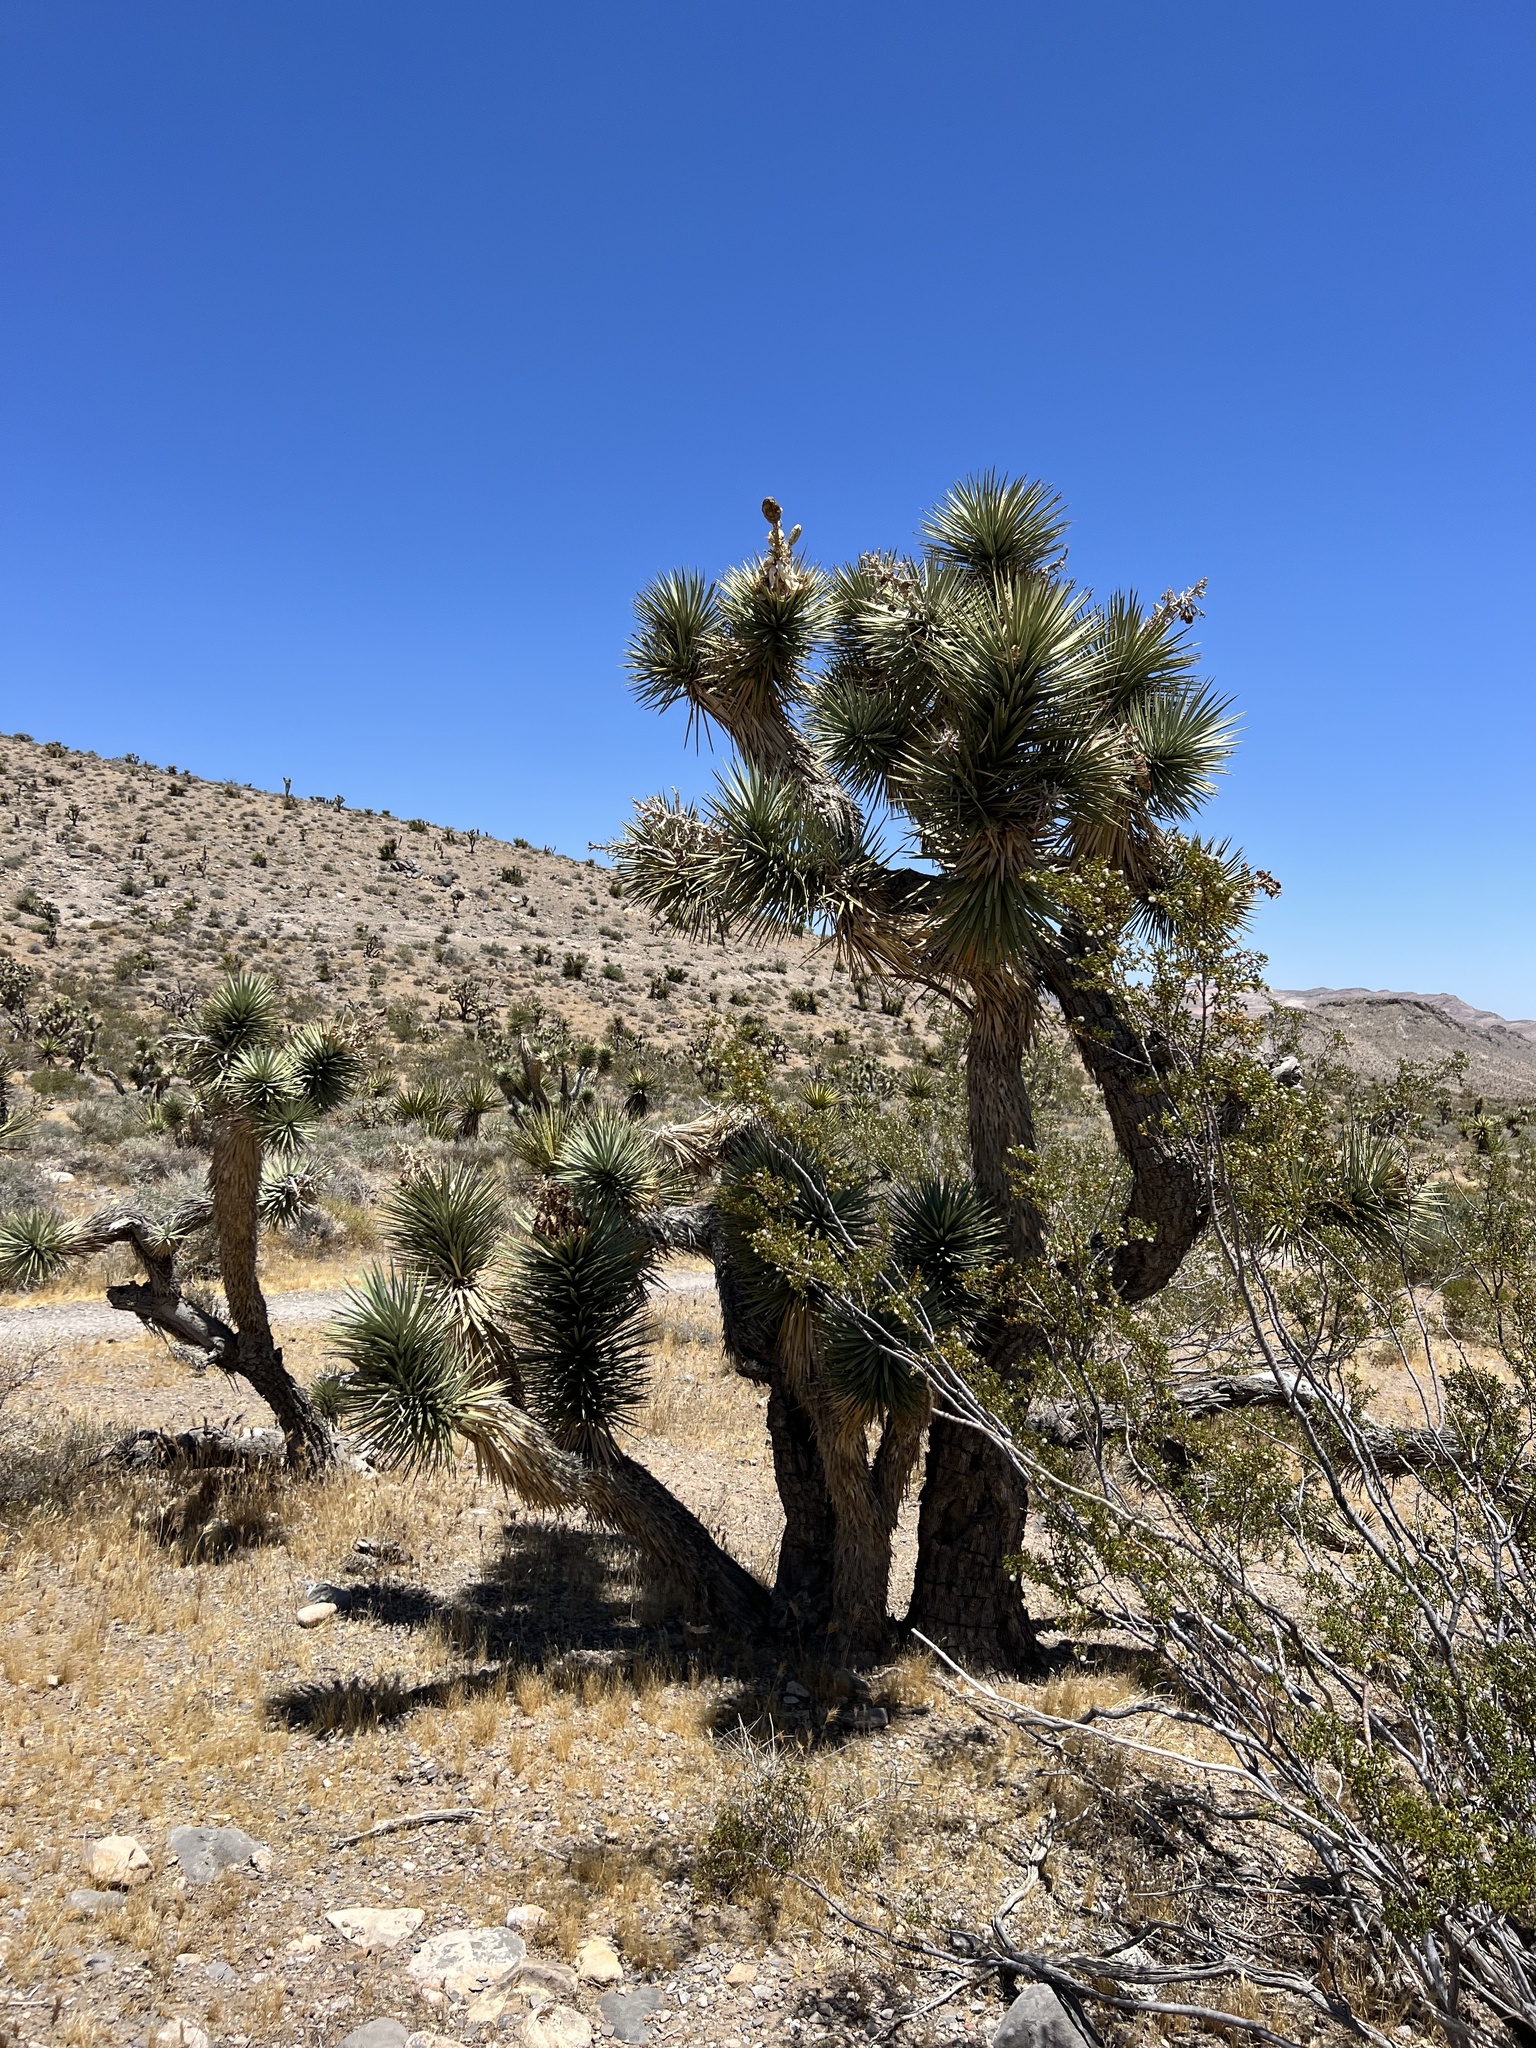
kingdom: Plantae
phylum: Tracheophyta
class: Liliopsida
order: Asparagales
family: Asparagaceae
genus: Yucca
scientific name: Yucca brevifolia
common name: Joshua tree
